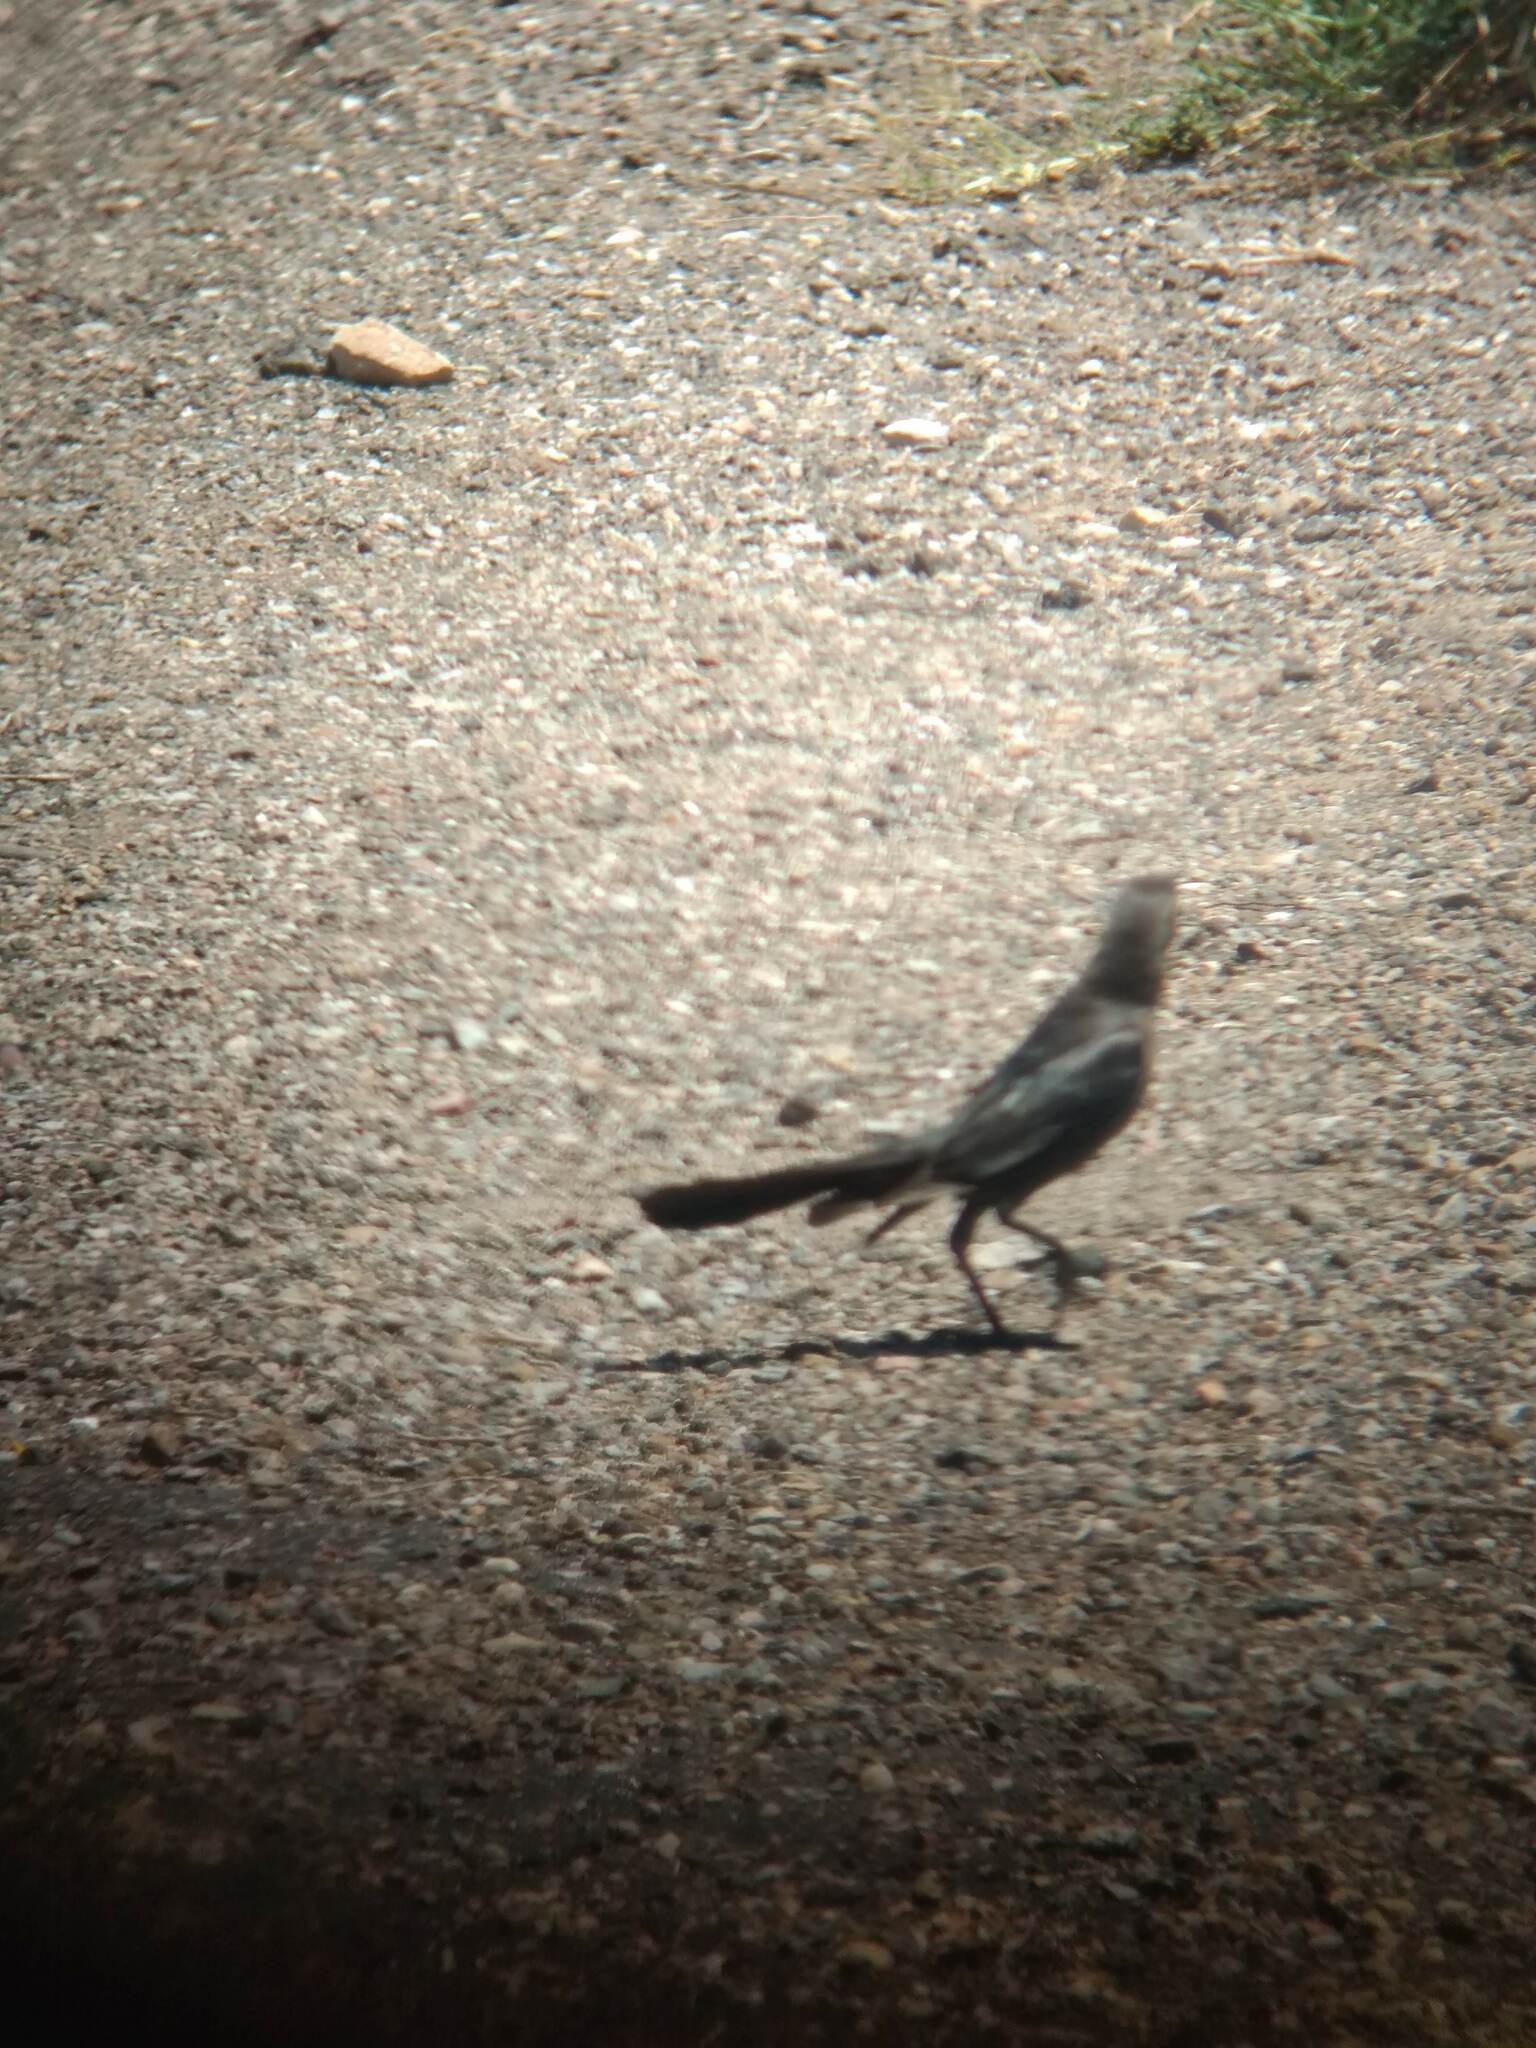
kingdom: Animalia
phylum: Chordata
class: Aves
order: Passeriformes
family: Icteridae
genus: Quiscalus
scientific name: Quiscalus mexicanus
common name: Great-tailed grackle
